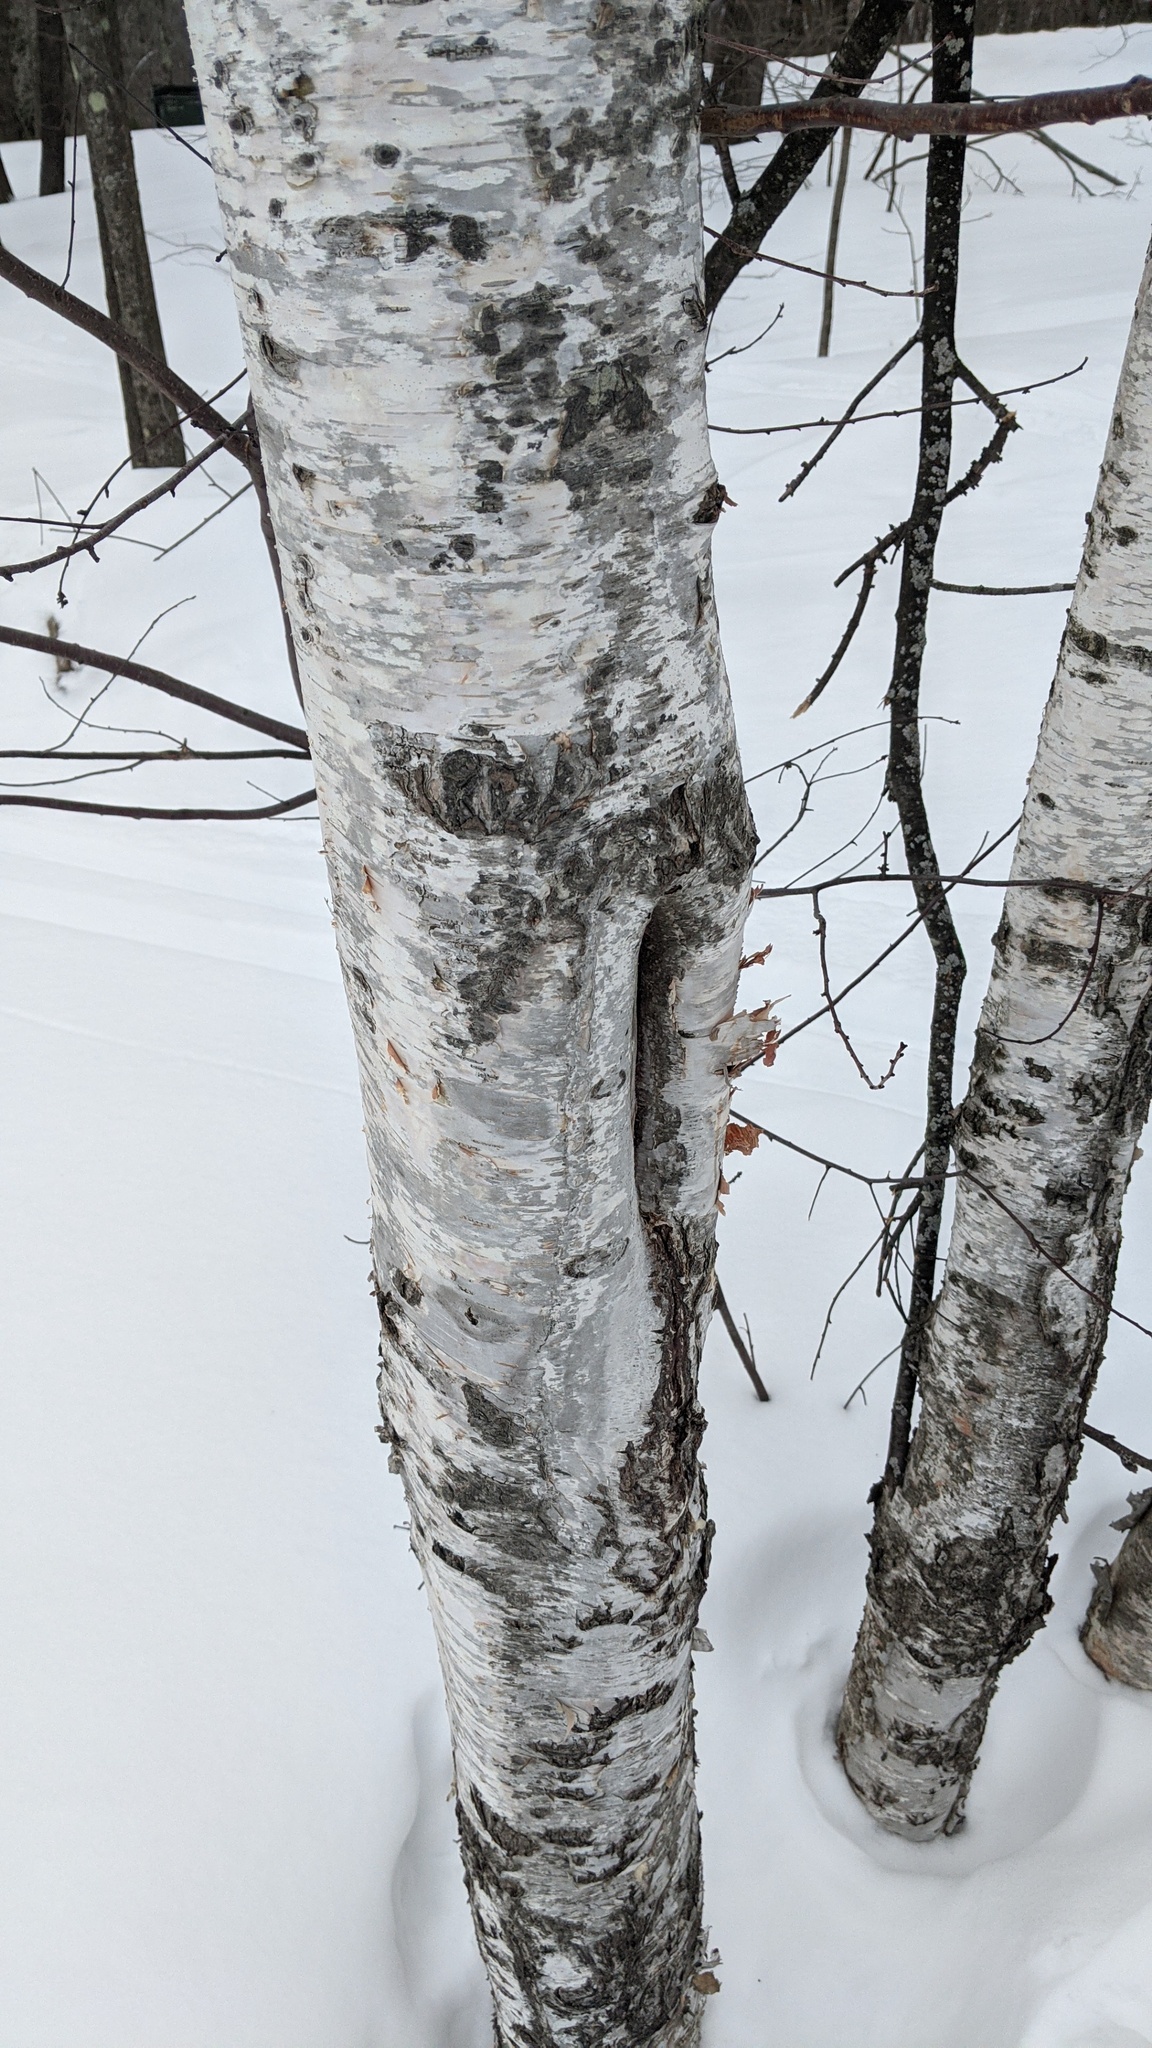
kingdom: Plantae
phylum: Tracheophyta
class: Magnoliopsida
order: Fagales
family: Betulaceae
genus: Betula
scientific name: Betula papyrifera
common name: Paper birch
